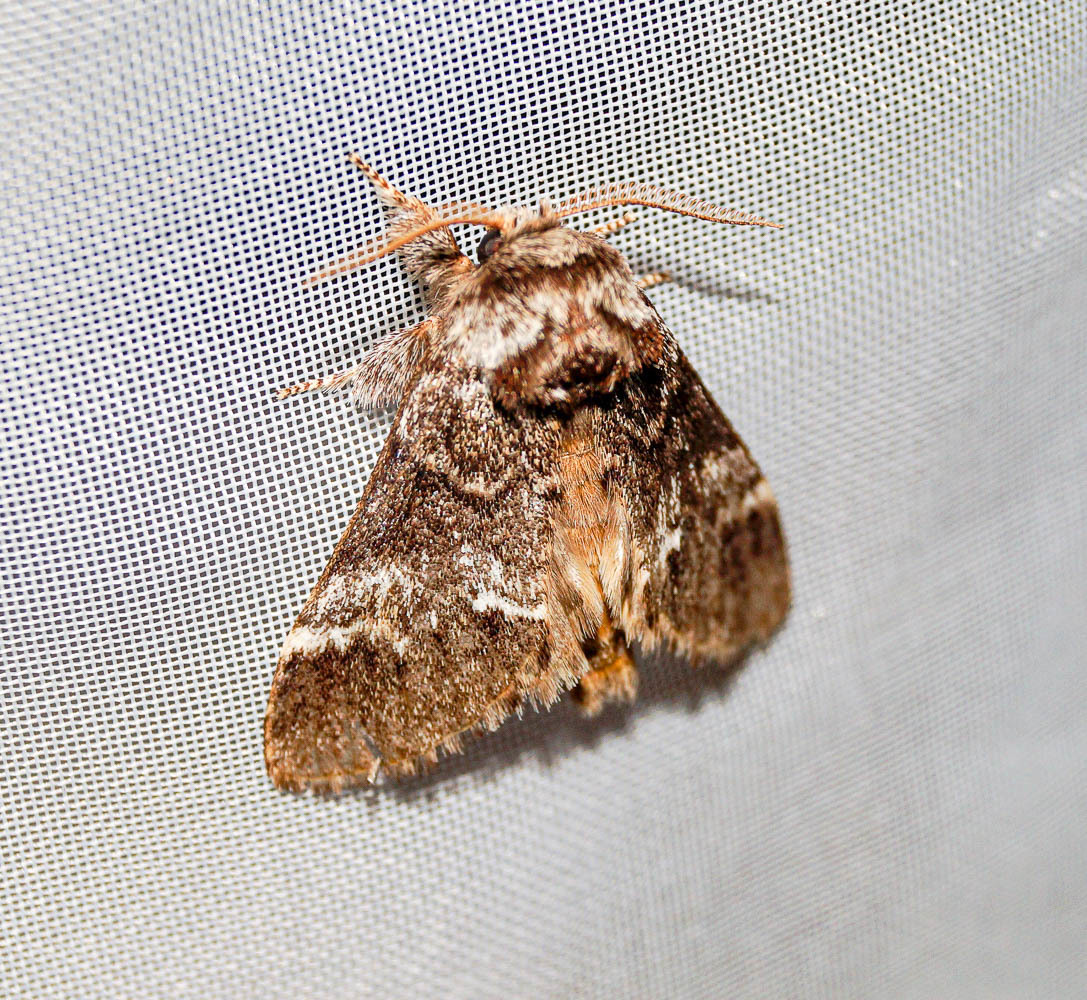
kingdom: Animalia
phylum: Arthropoda
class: Insecta
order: Lepidoptera
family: Notodontidae
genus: Drymonia
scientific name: Drymonia dodonaea
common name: Marbled brown
